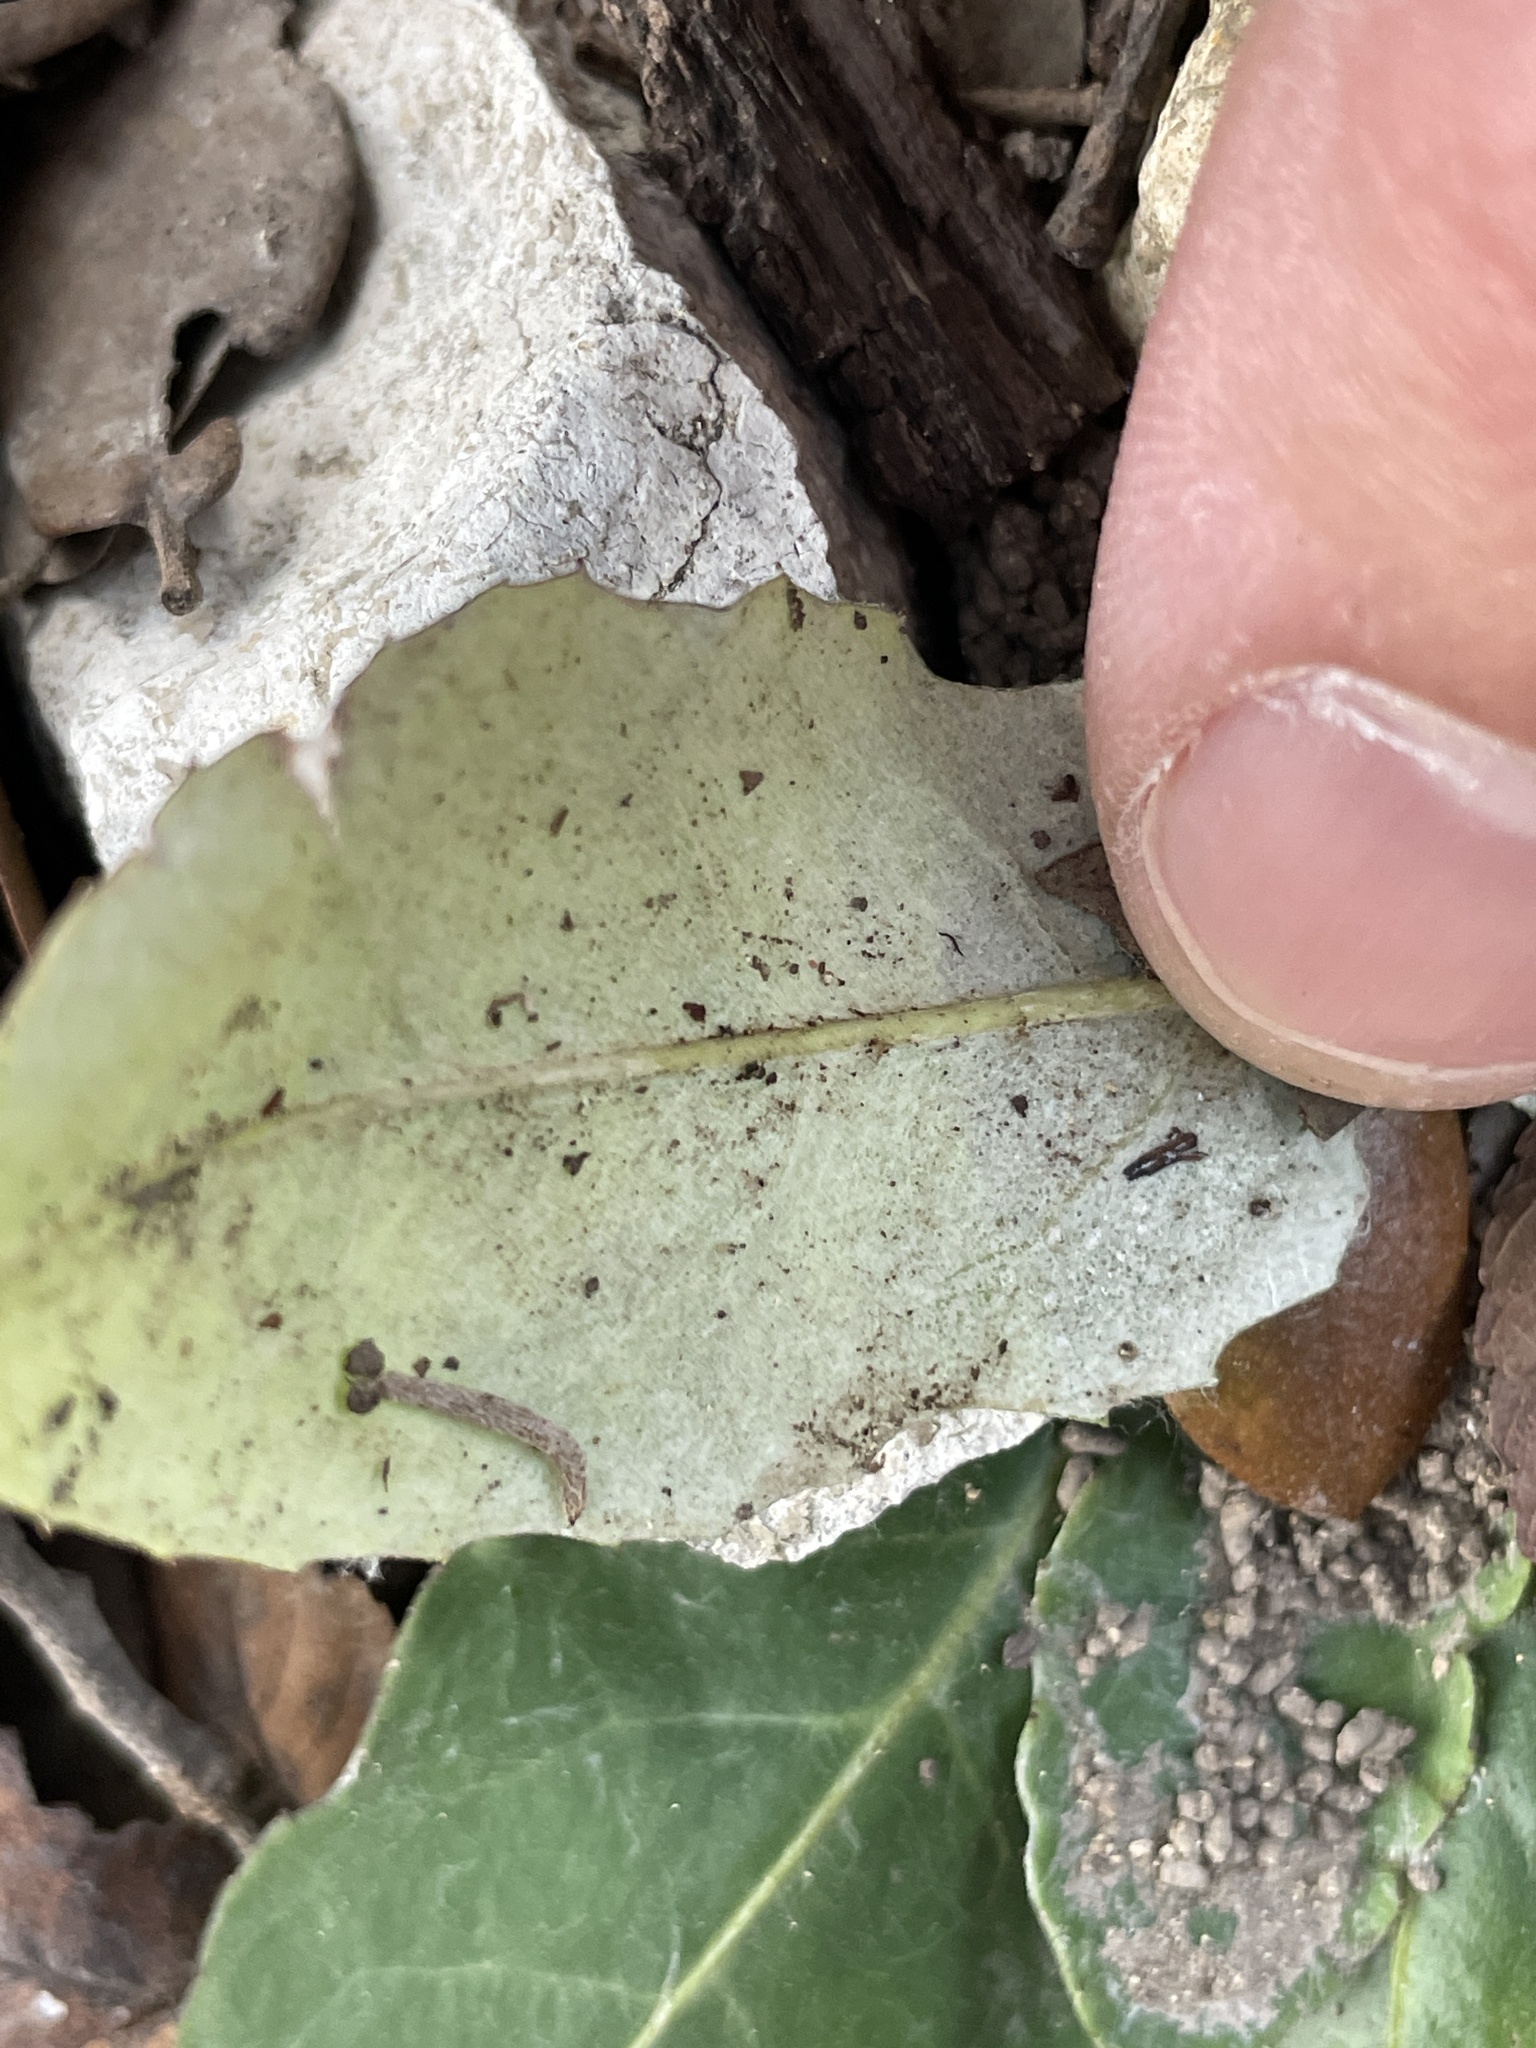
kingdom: Plantae
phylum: Tracheophyta
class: Magnoliopsida
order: Asterales
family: Asteraceae
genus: Chaptalia
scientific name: Chaptalia texana
